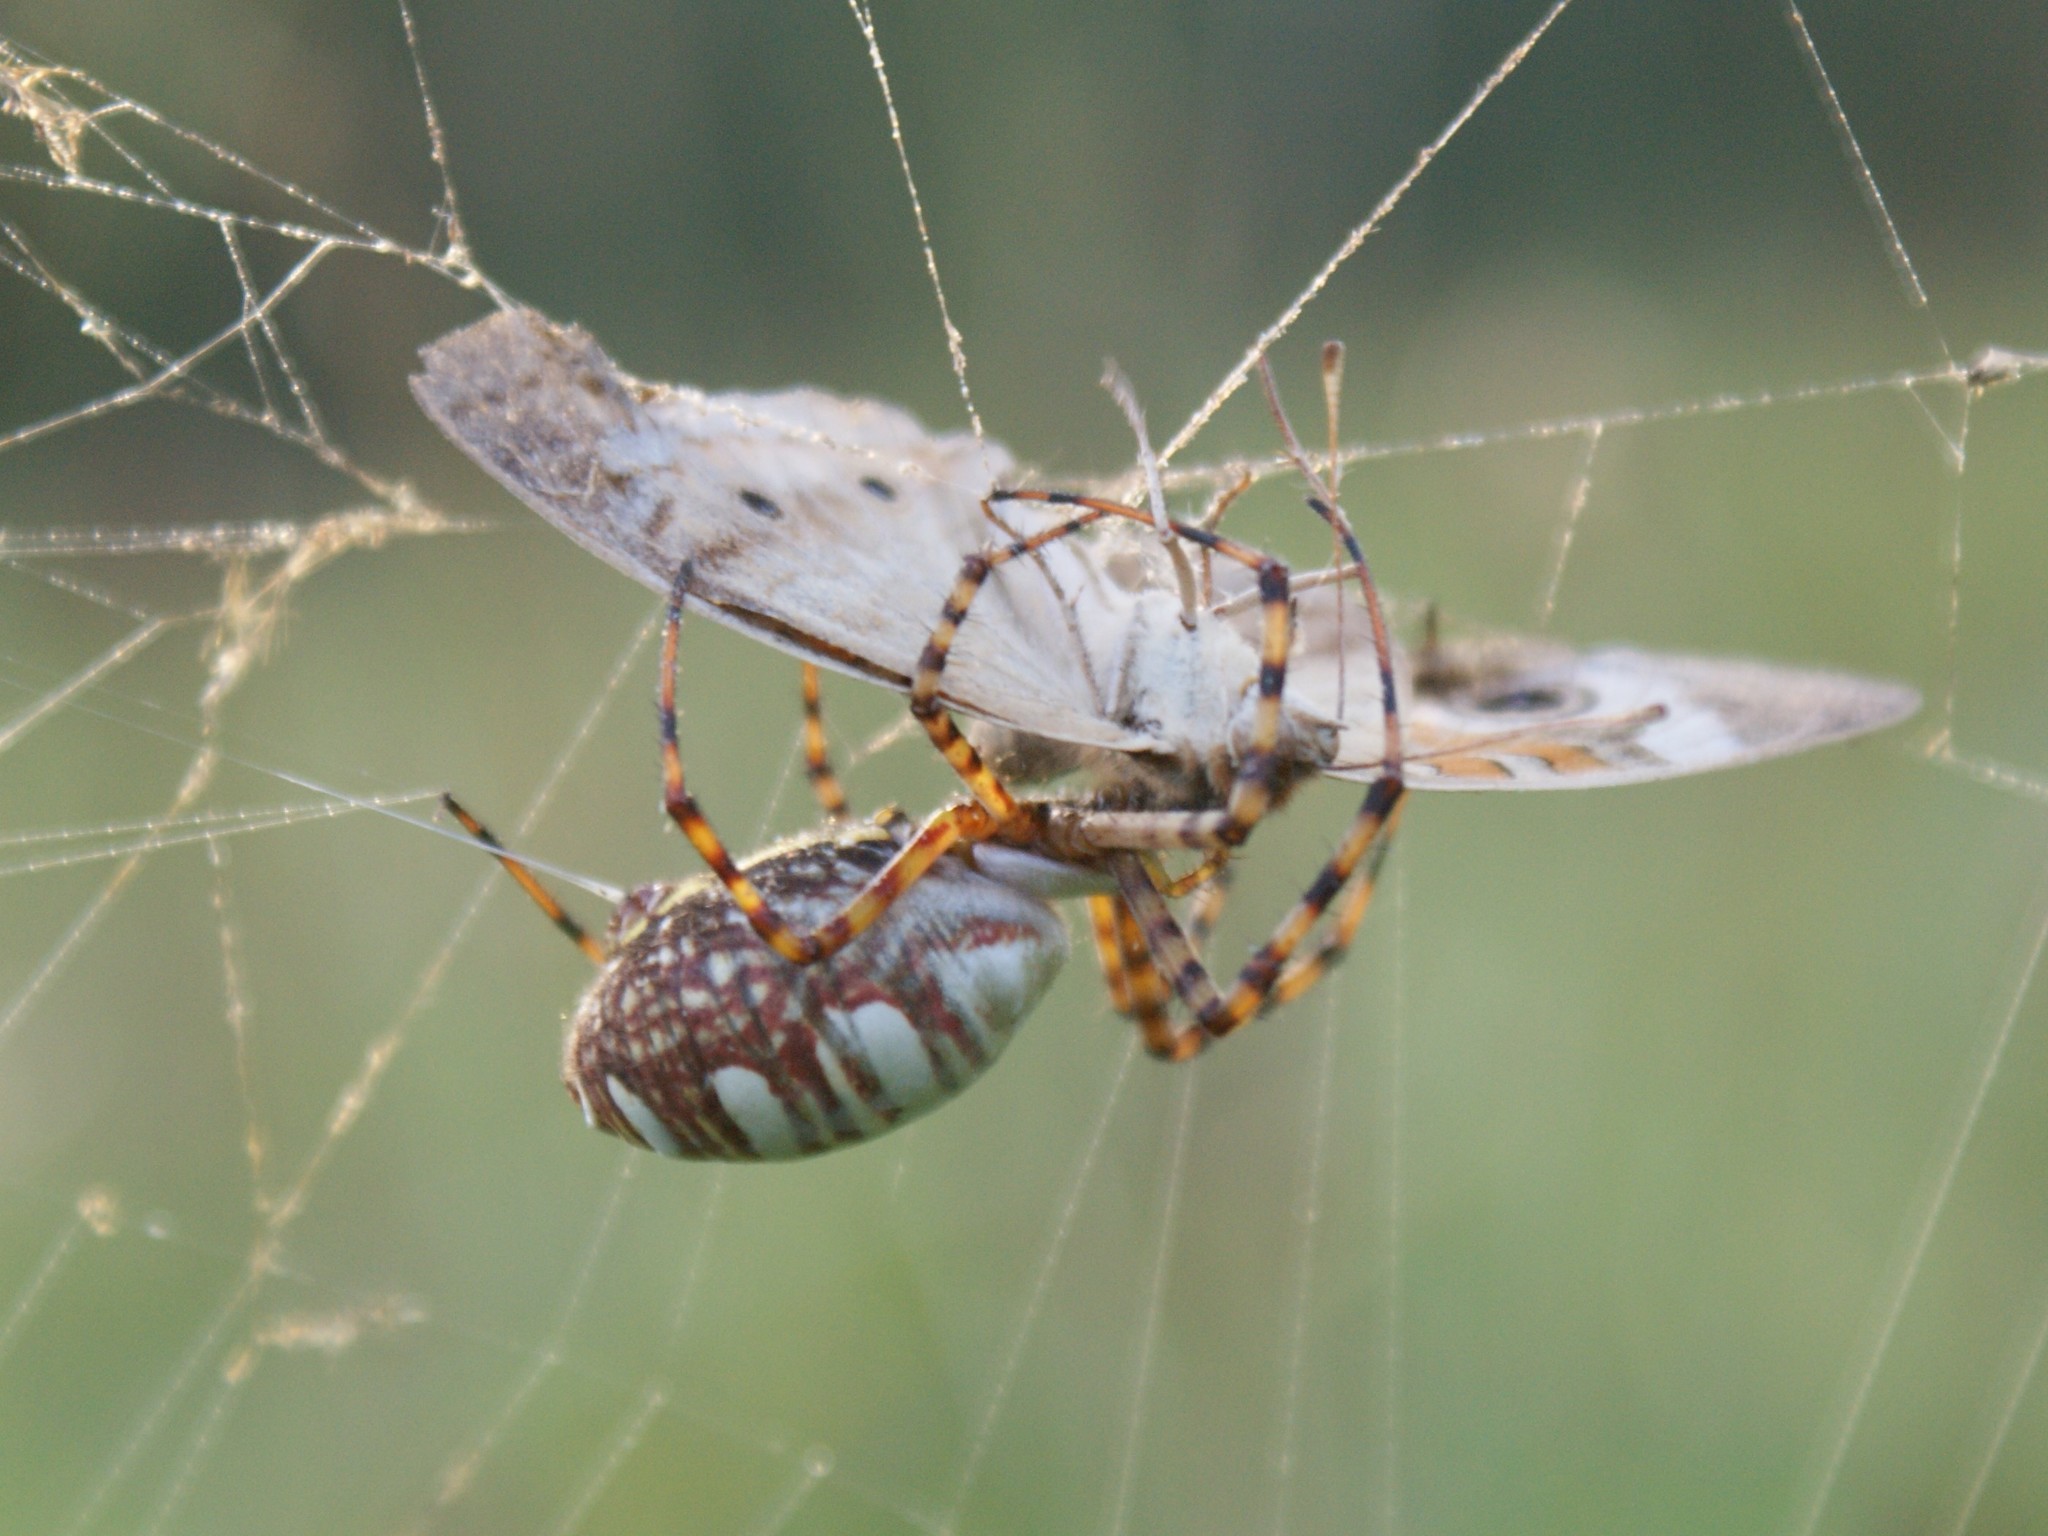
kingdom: Animalia
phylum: Arthropoda
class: Arachnida
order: Araneae
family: Araneidae
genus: Argiope
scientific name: Argiope trifasciata
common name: Banded garden spider
